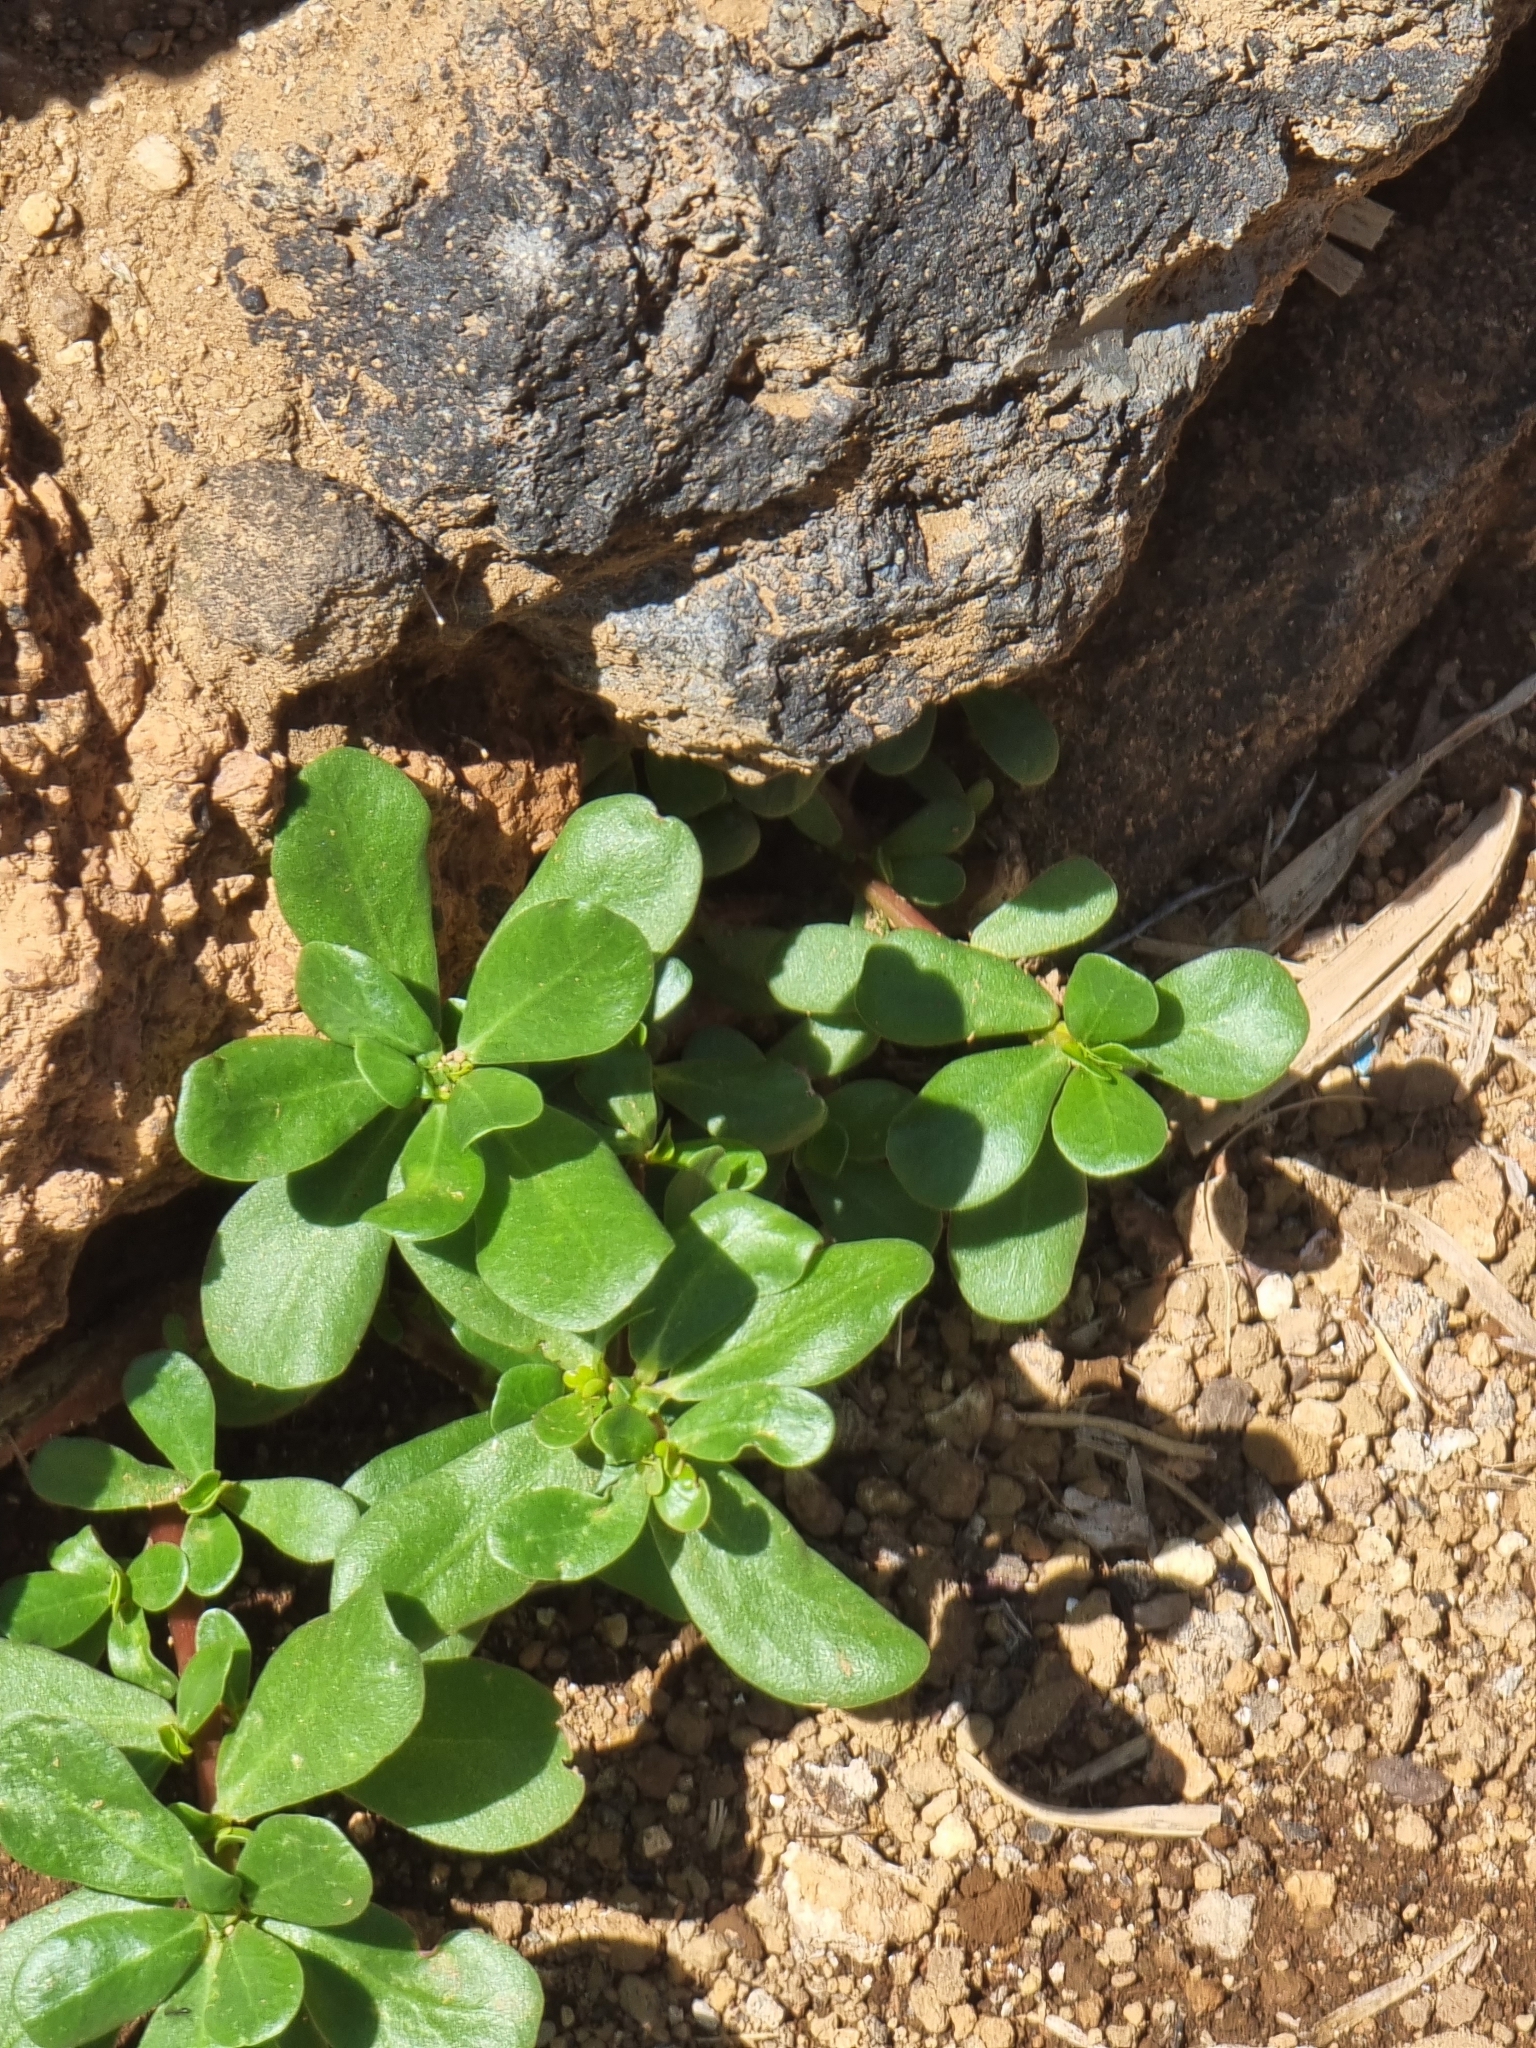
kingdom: Plantae
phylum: Tracheophyta
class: Magnoliopsida
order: Caryophyllales
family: Portulacaceae
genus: Portulaca
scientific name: Portulaca oleracea
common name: Common purslane
